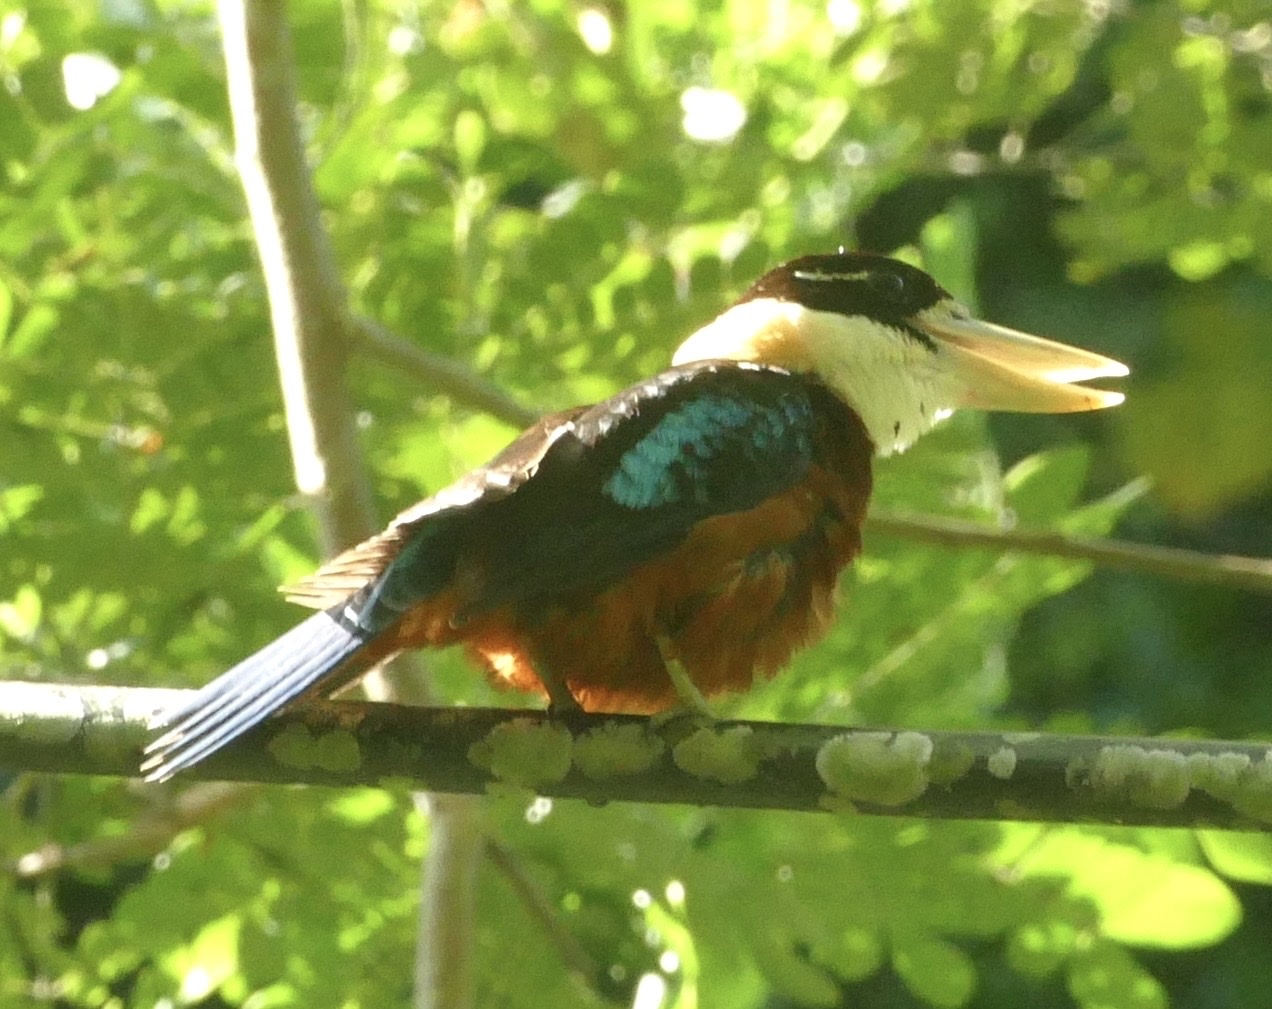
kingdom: Animalia
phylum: Chordata
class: Aves
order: Coraciiformes
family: Alcedinidae
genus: Dacelo
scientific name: Dacelo gaudichaud
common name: Rufous-bellied kookaburra
